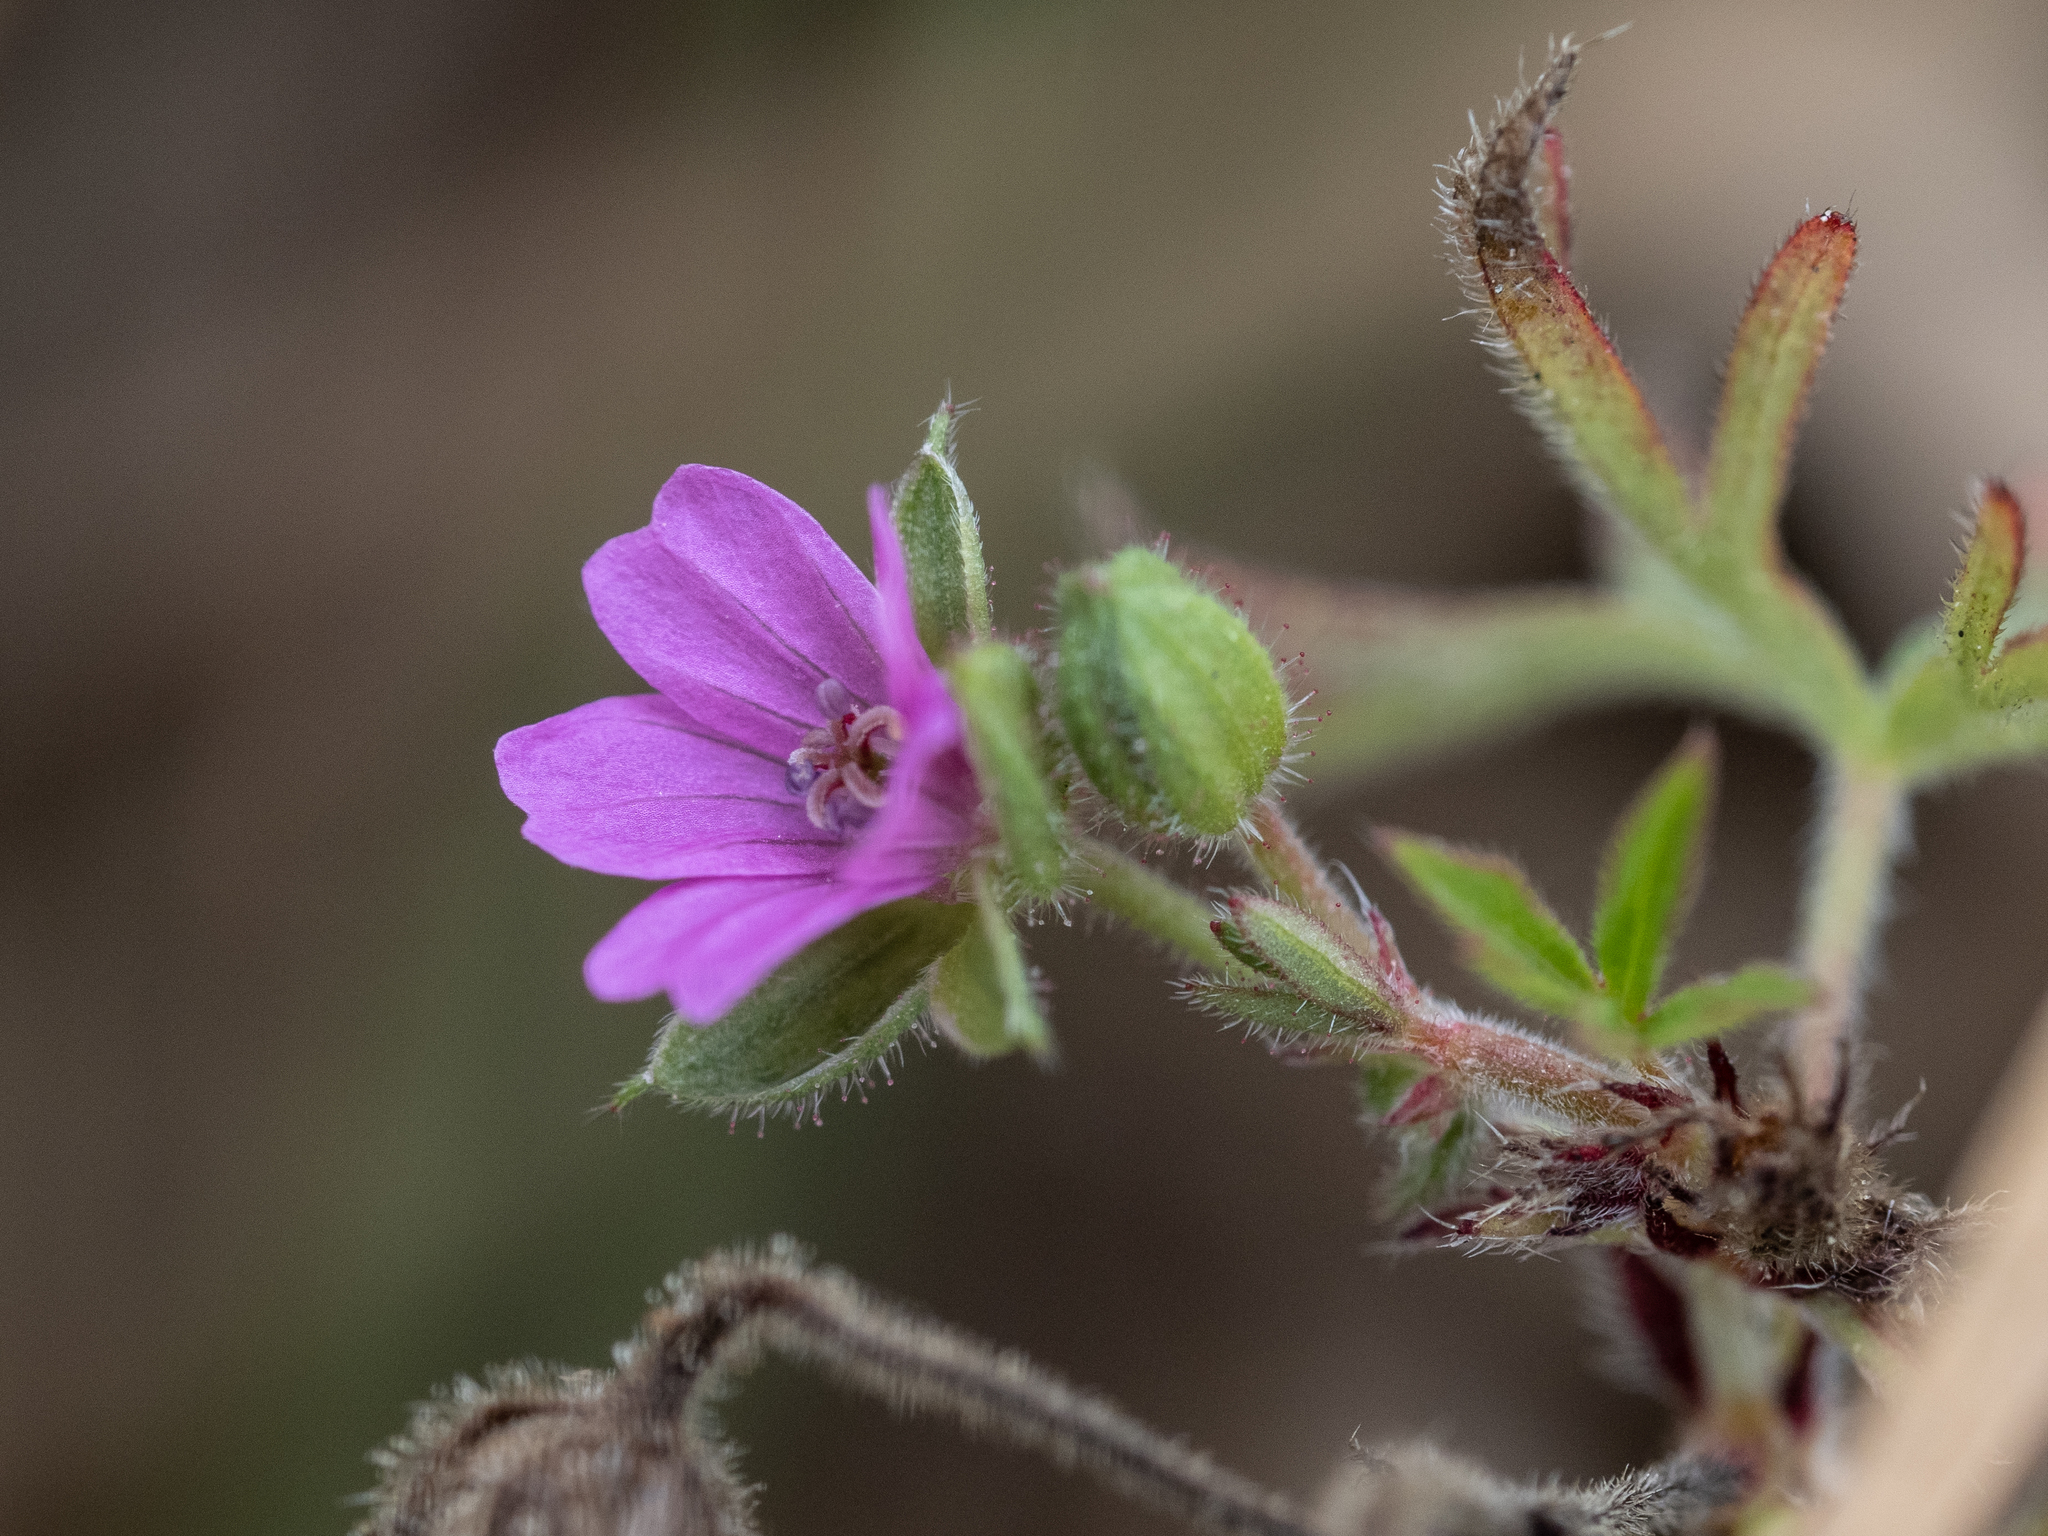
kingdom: Plantae
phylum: Tracheophyta
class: Magnoliopsida
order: Geraniales
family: Geraniaceae
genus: Geranium
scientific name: Geranium dissectum
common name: Cut-leaved crane's-bill
